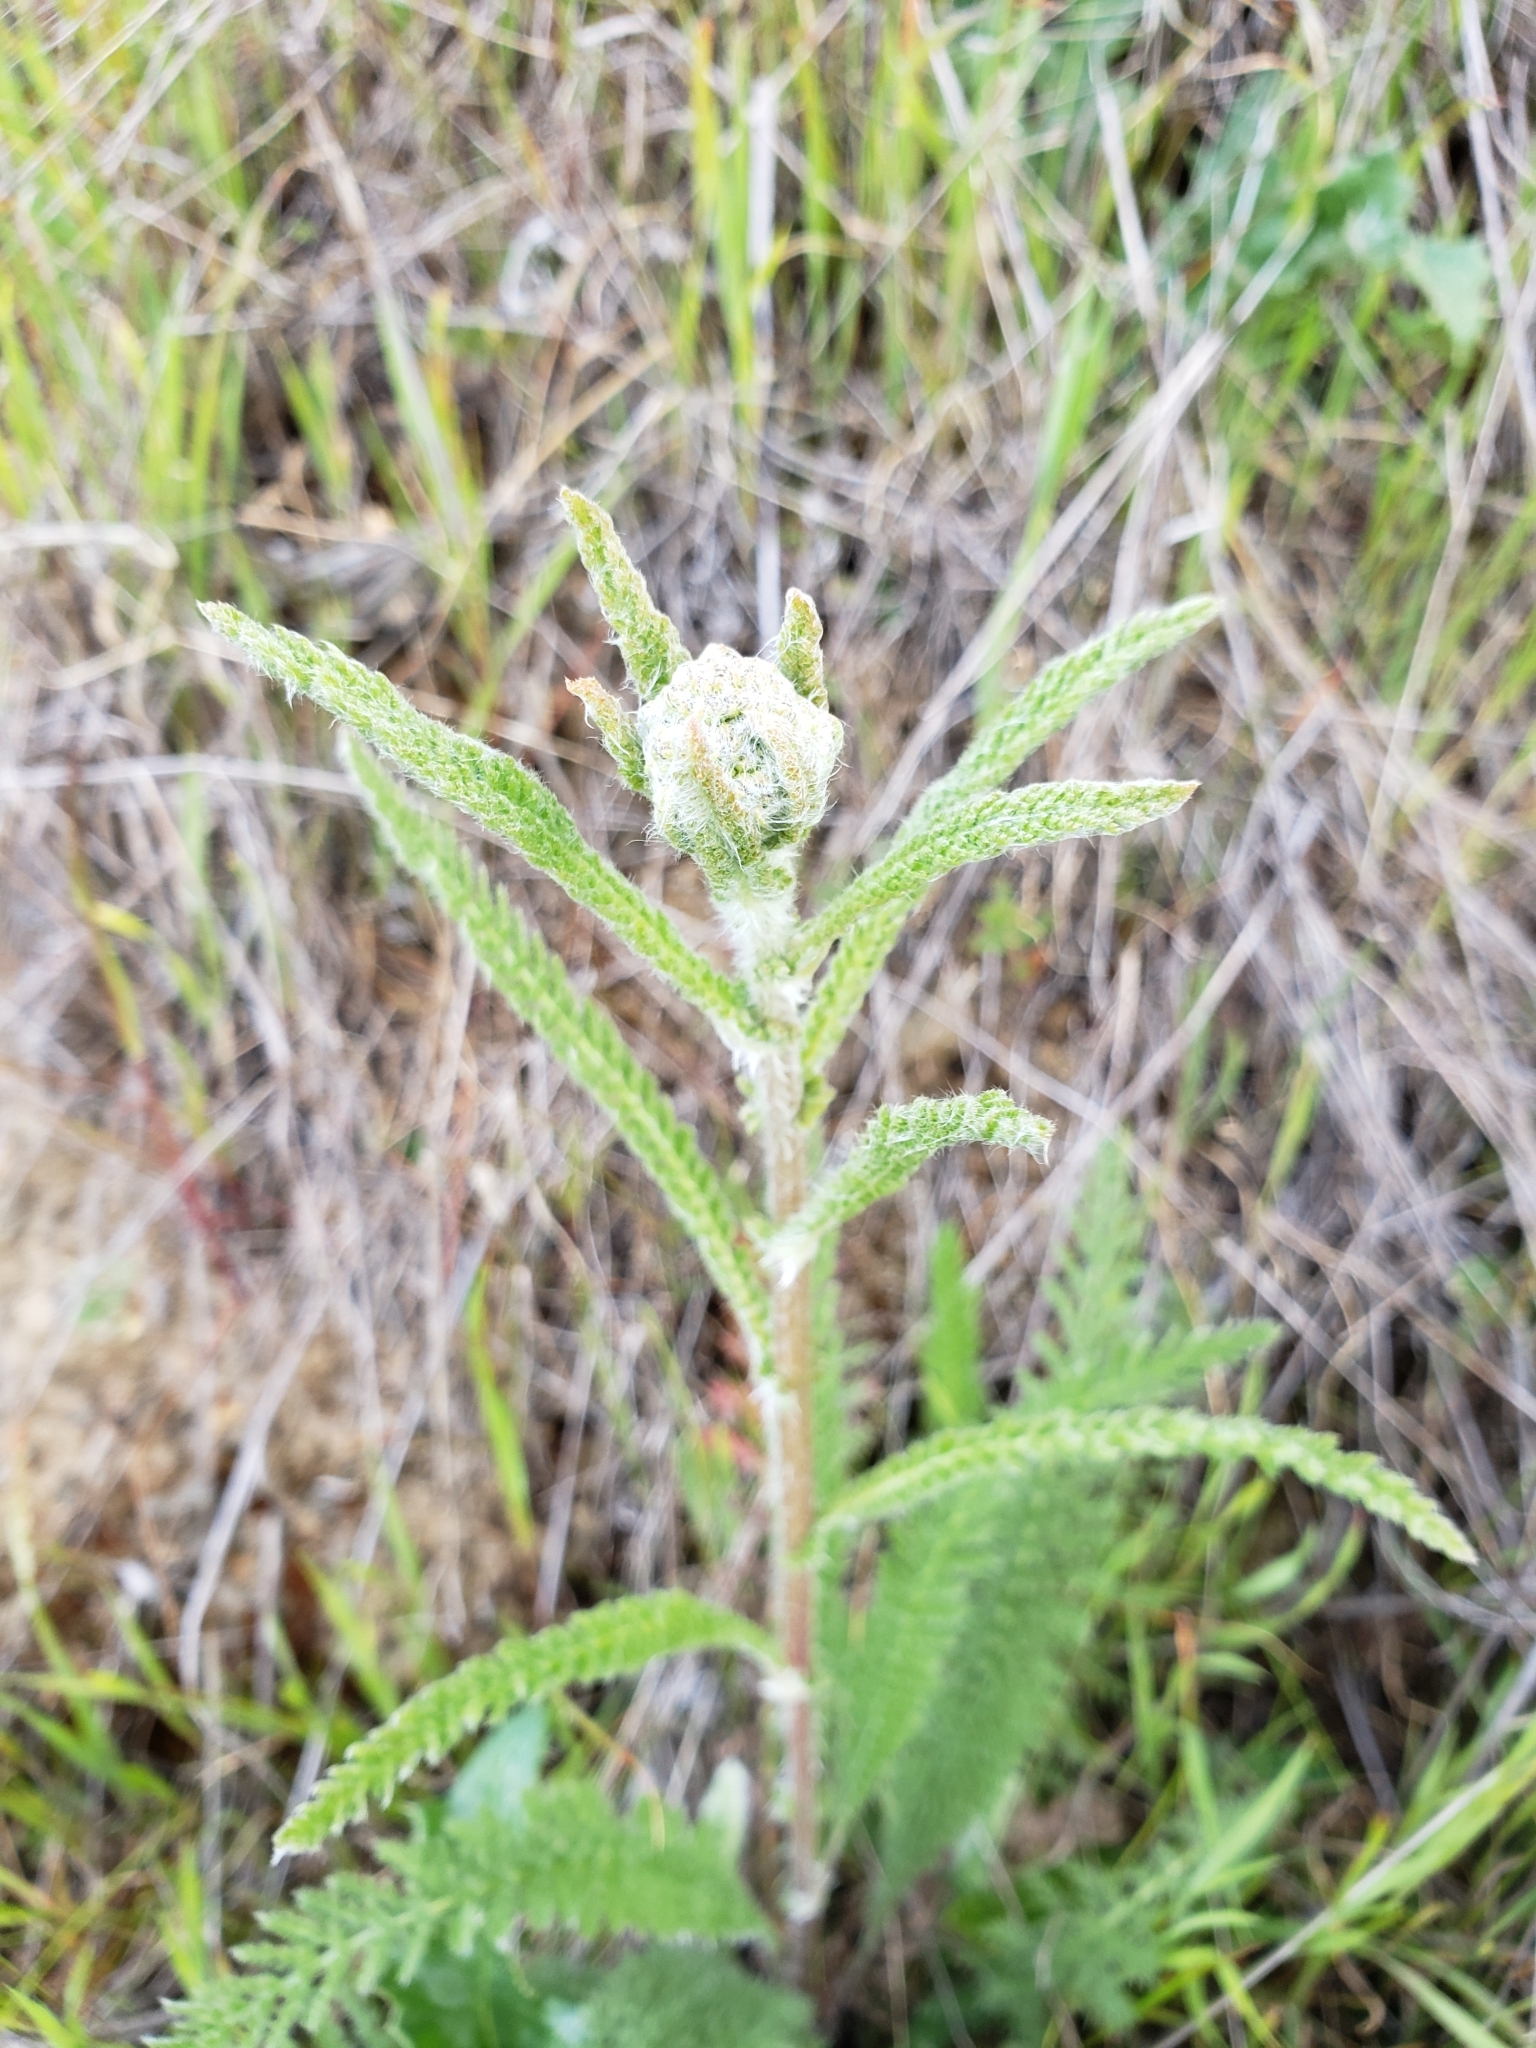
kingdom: Plantae
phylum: Tracheophyta
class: Magnoliopsida
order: Asterales
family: Asteraceae
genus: Achillea
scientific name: Achillea millefolium
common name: Yarrow
